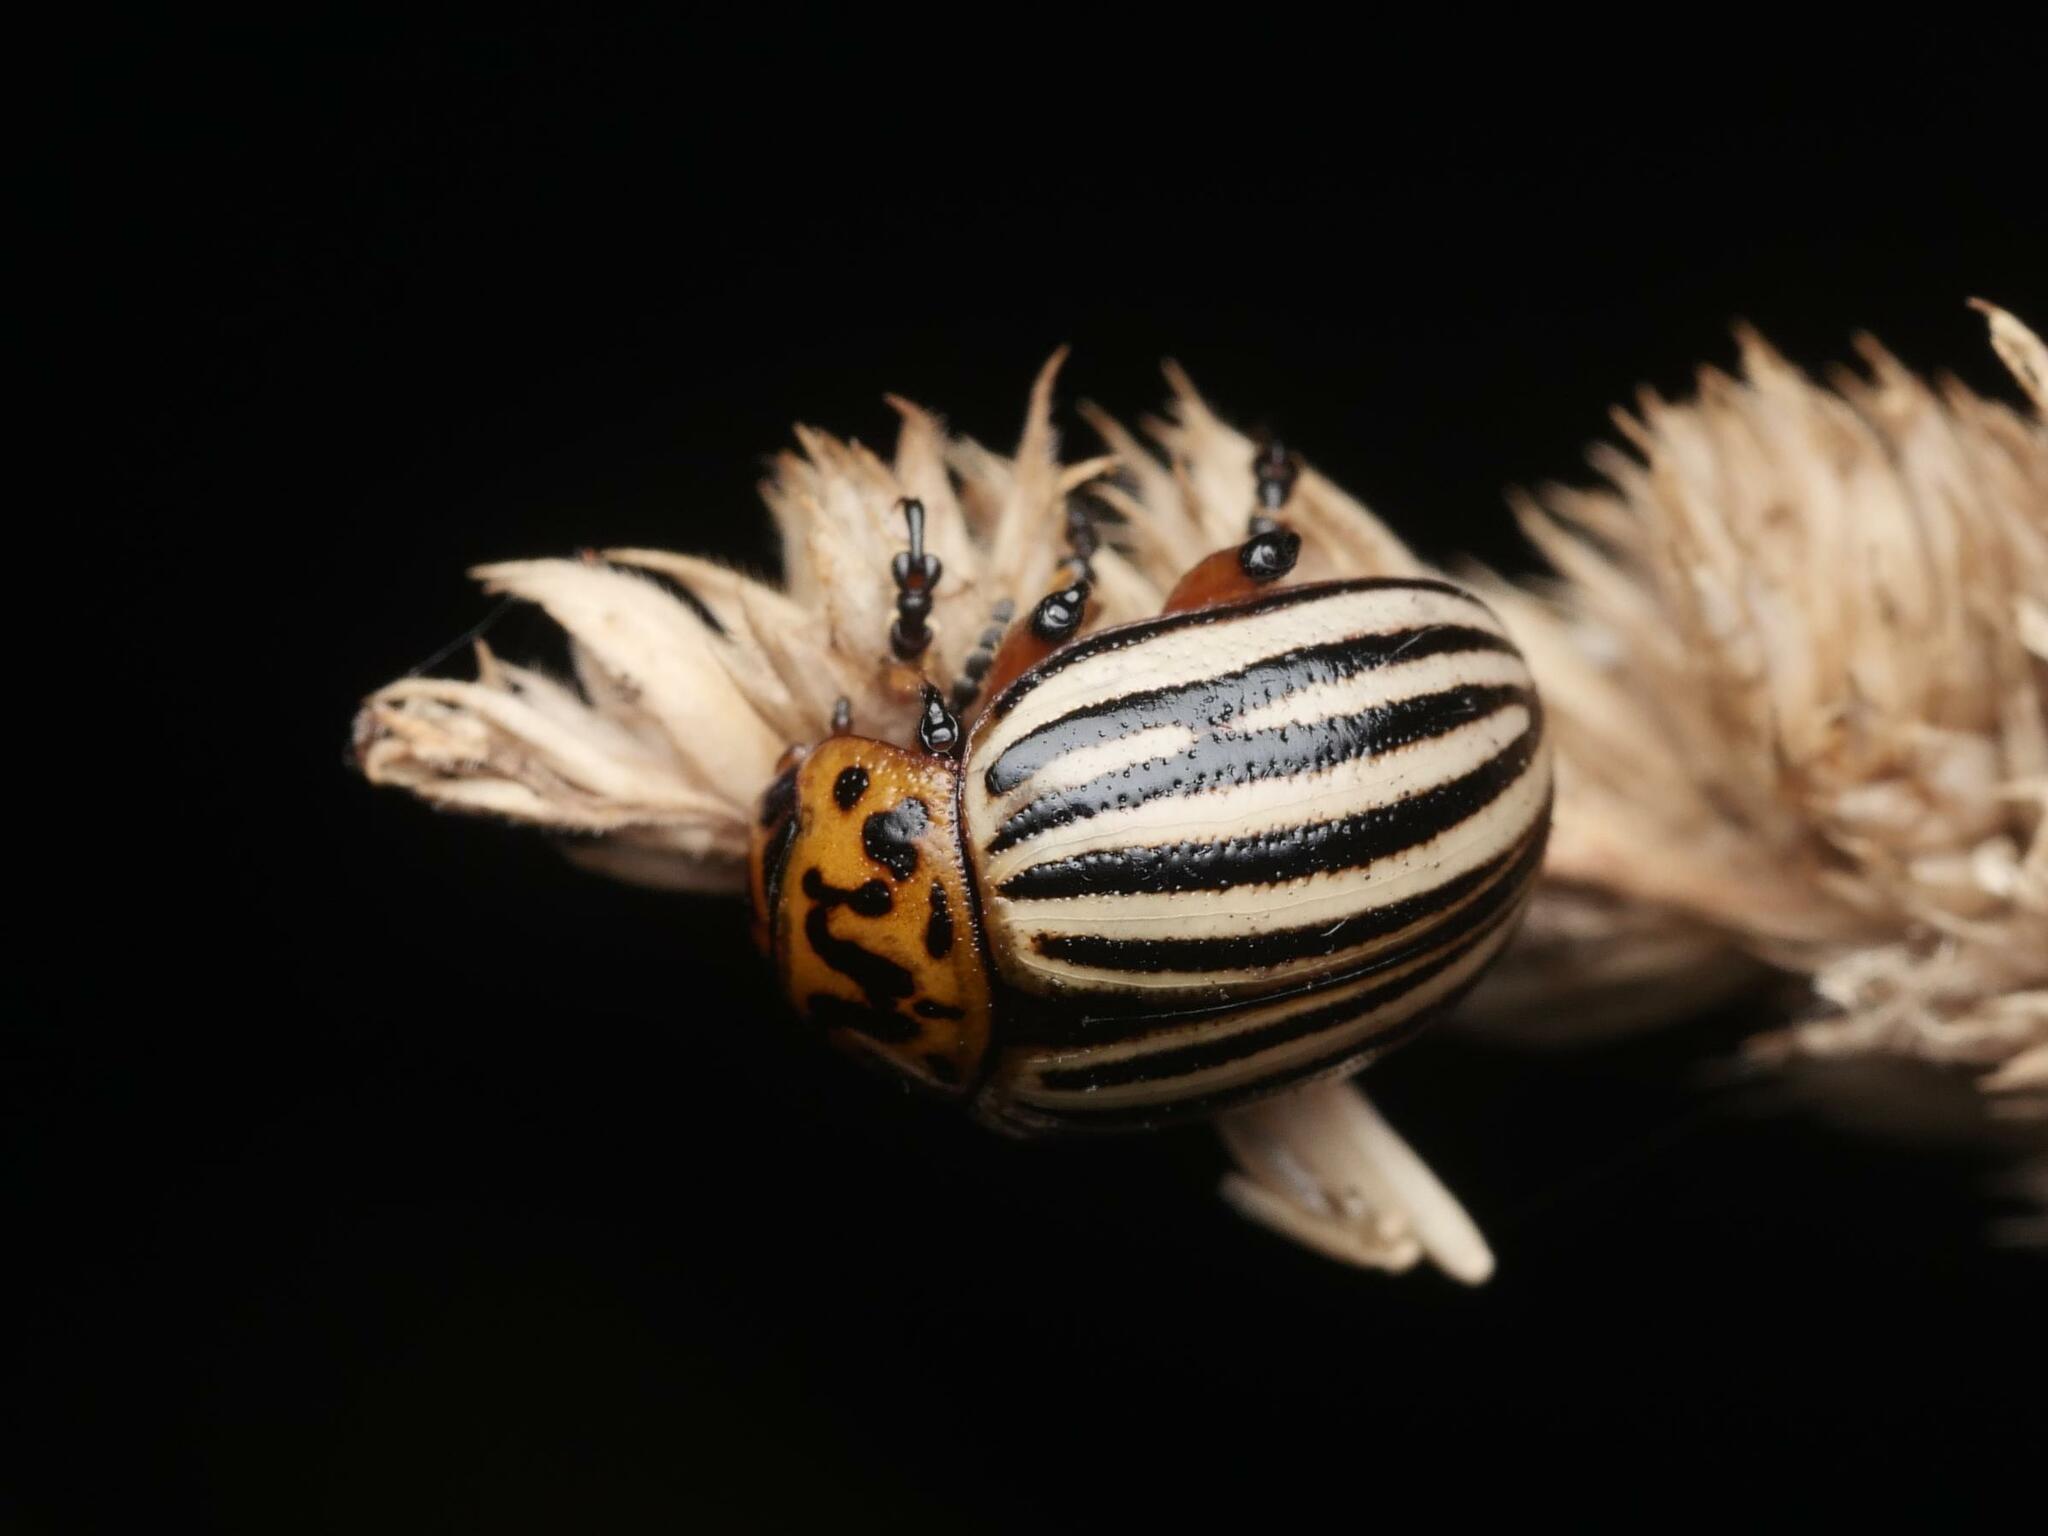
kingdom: Animalia
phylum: Arthropoda
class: Insecta
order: Coleoptera
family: Chrysomelidae
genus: Leptinotarsa
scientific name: Leptinotarsa decemlineata
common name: Colorado potato beetle
